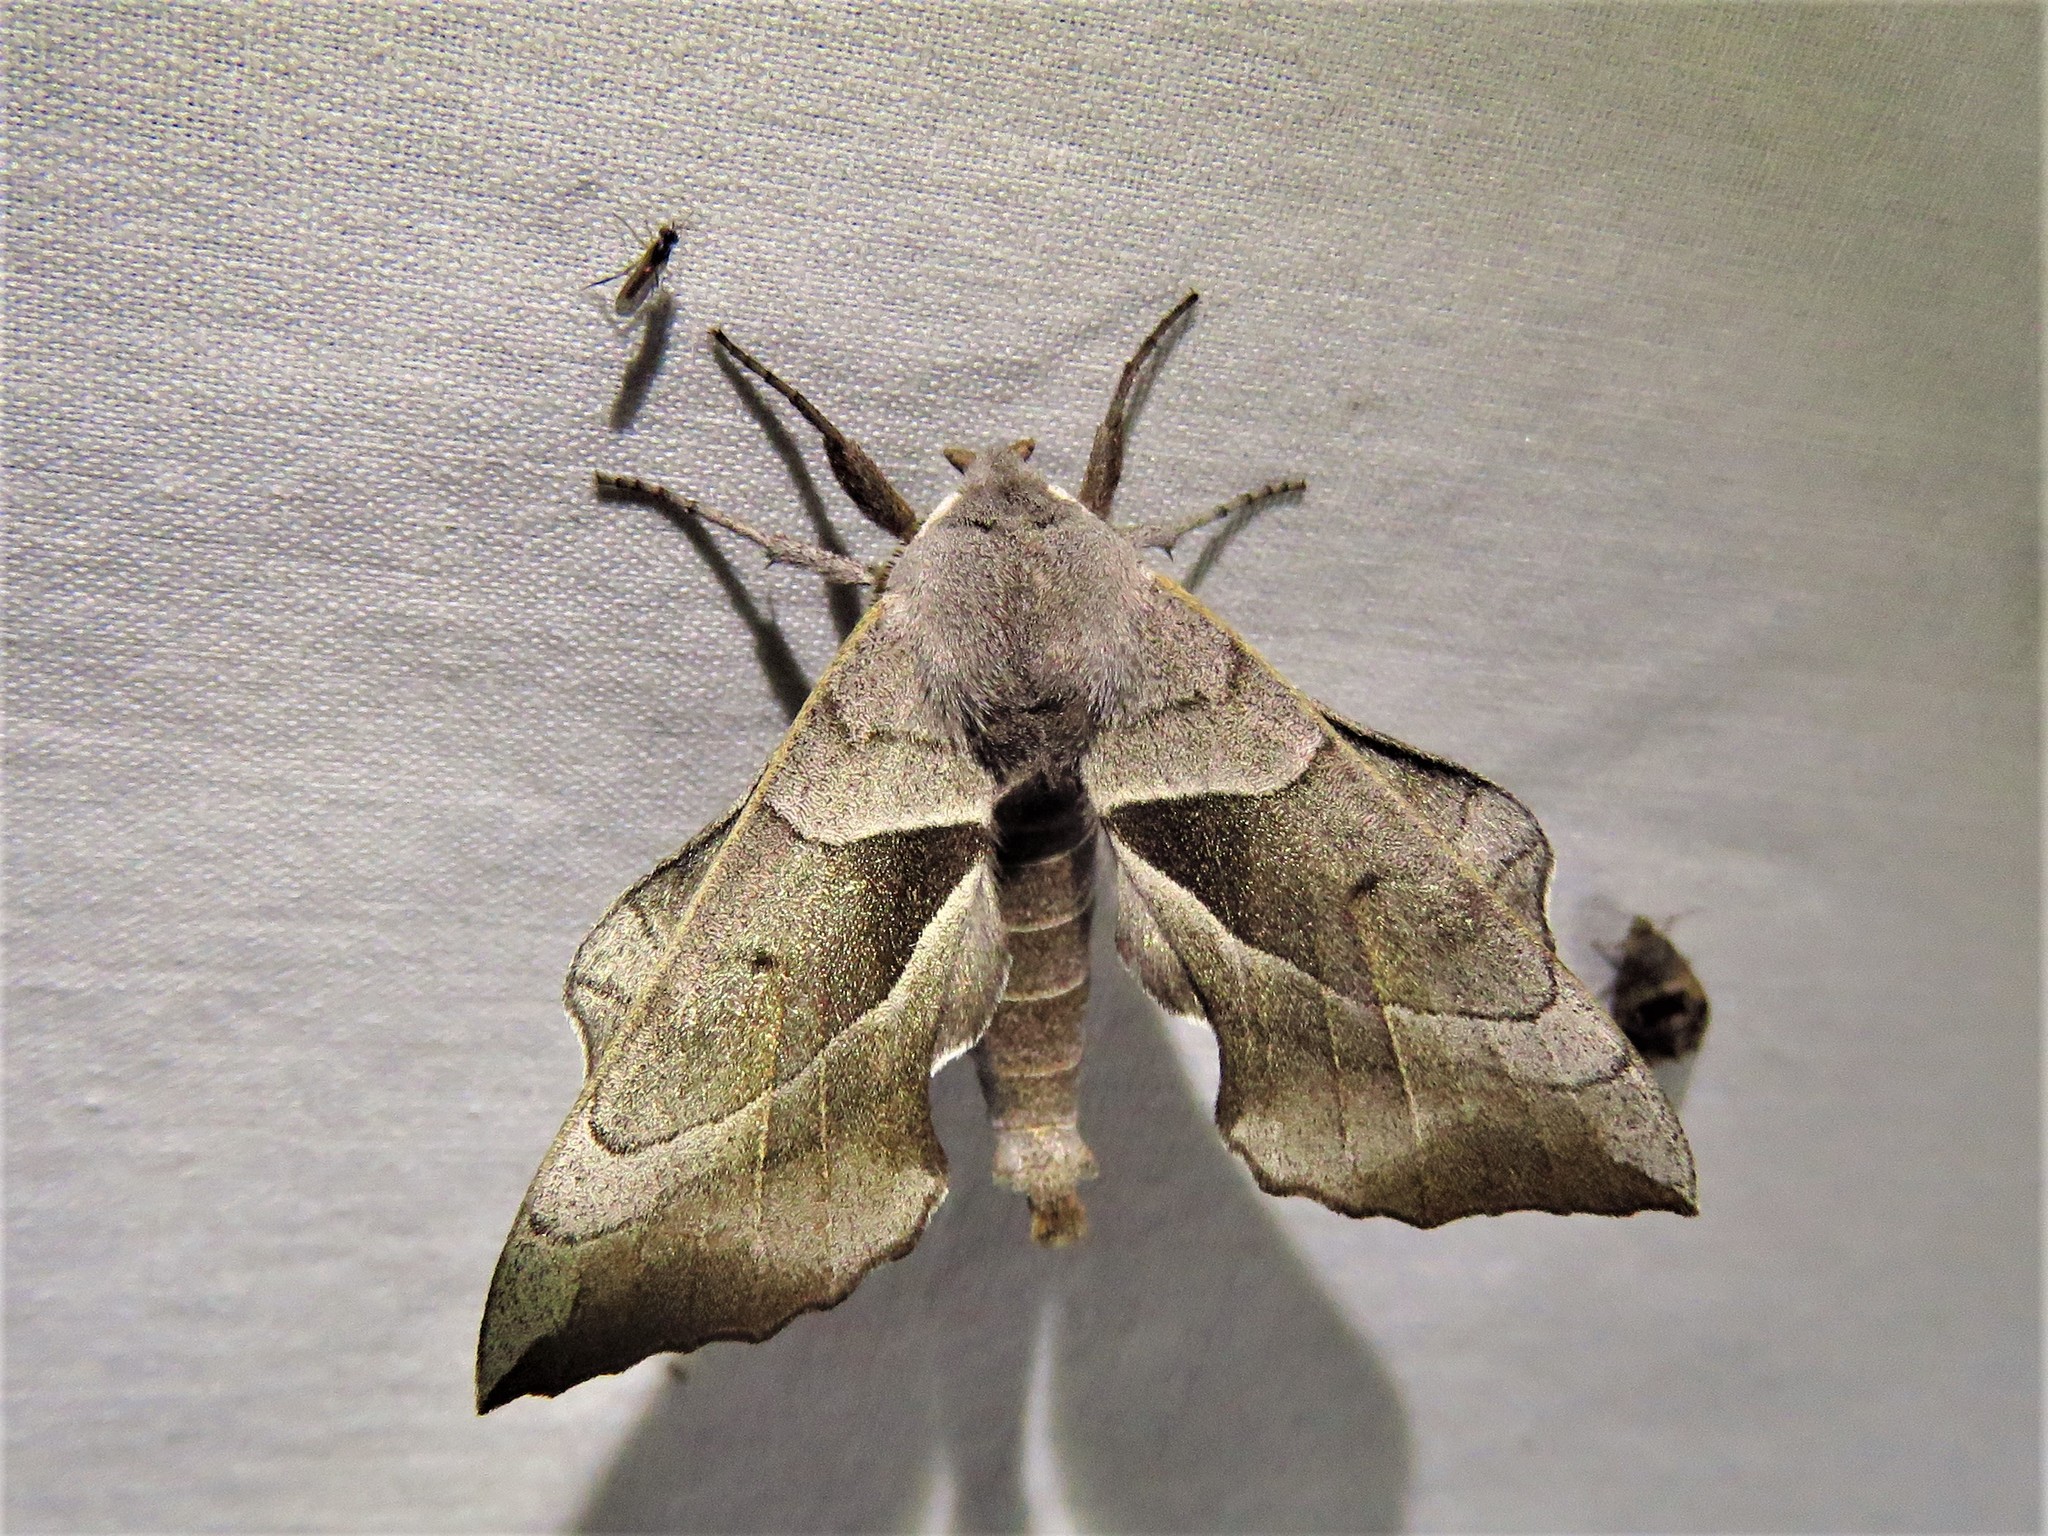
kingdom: Animalia
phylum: Arthropoda
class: Insecta
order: Lepidoptera
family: Sphingidae
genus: Amorpha
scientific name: Amorpha juglandis
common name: Walnut sphinx
